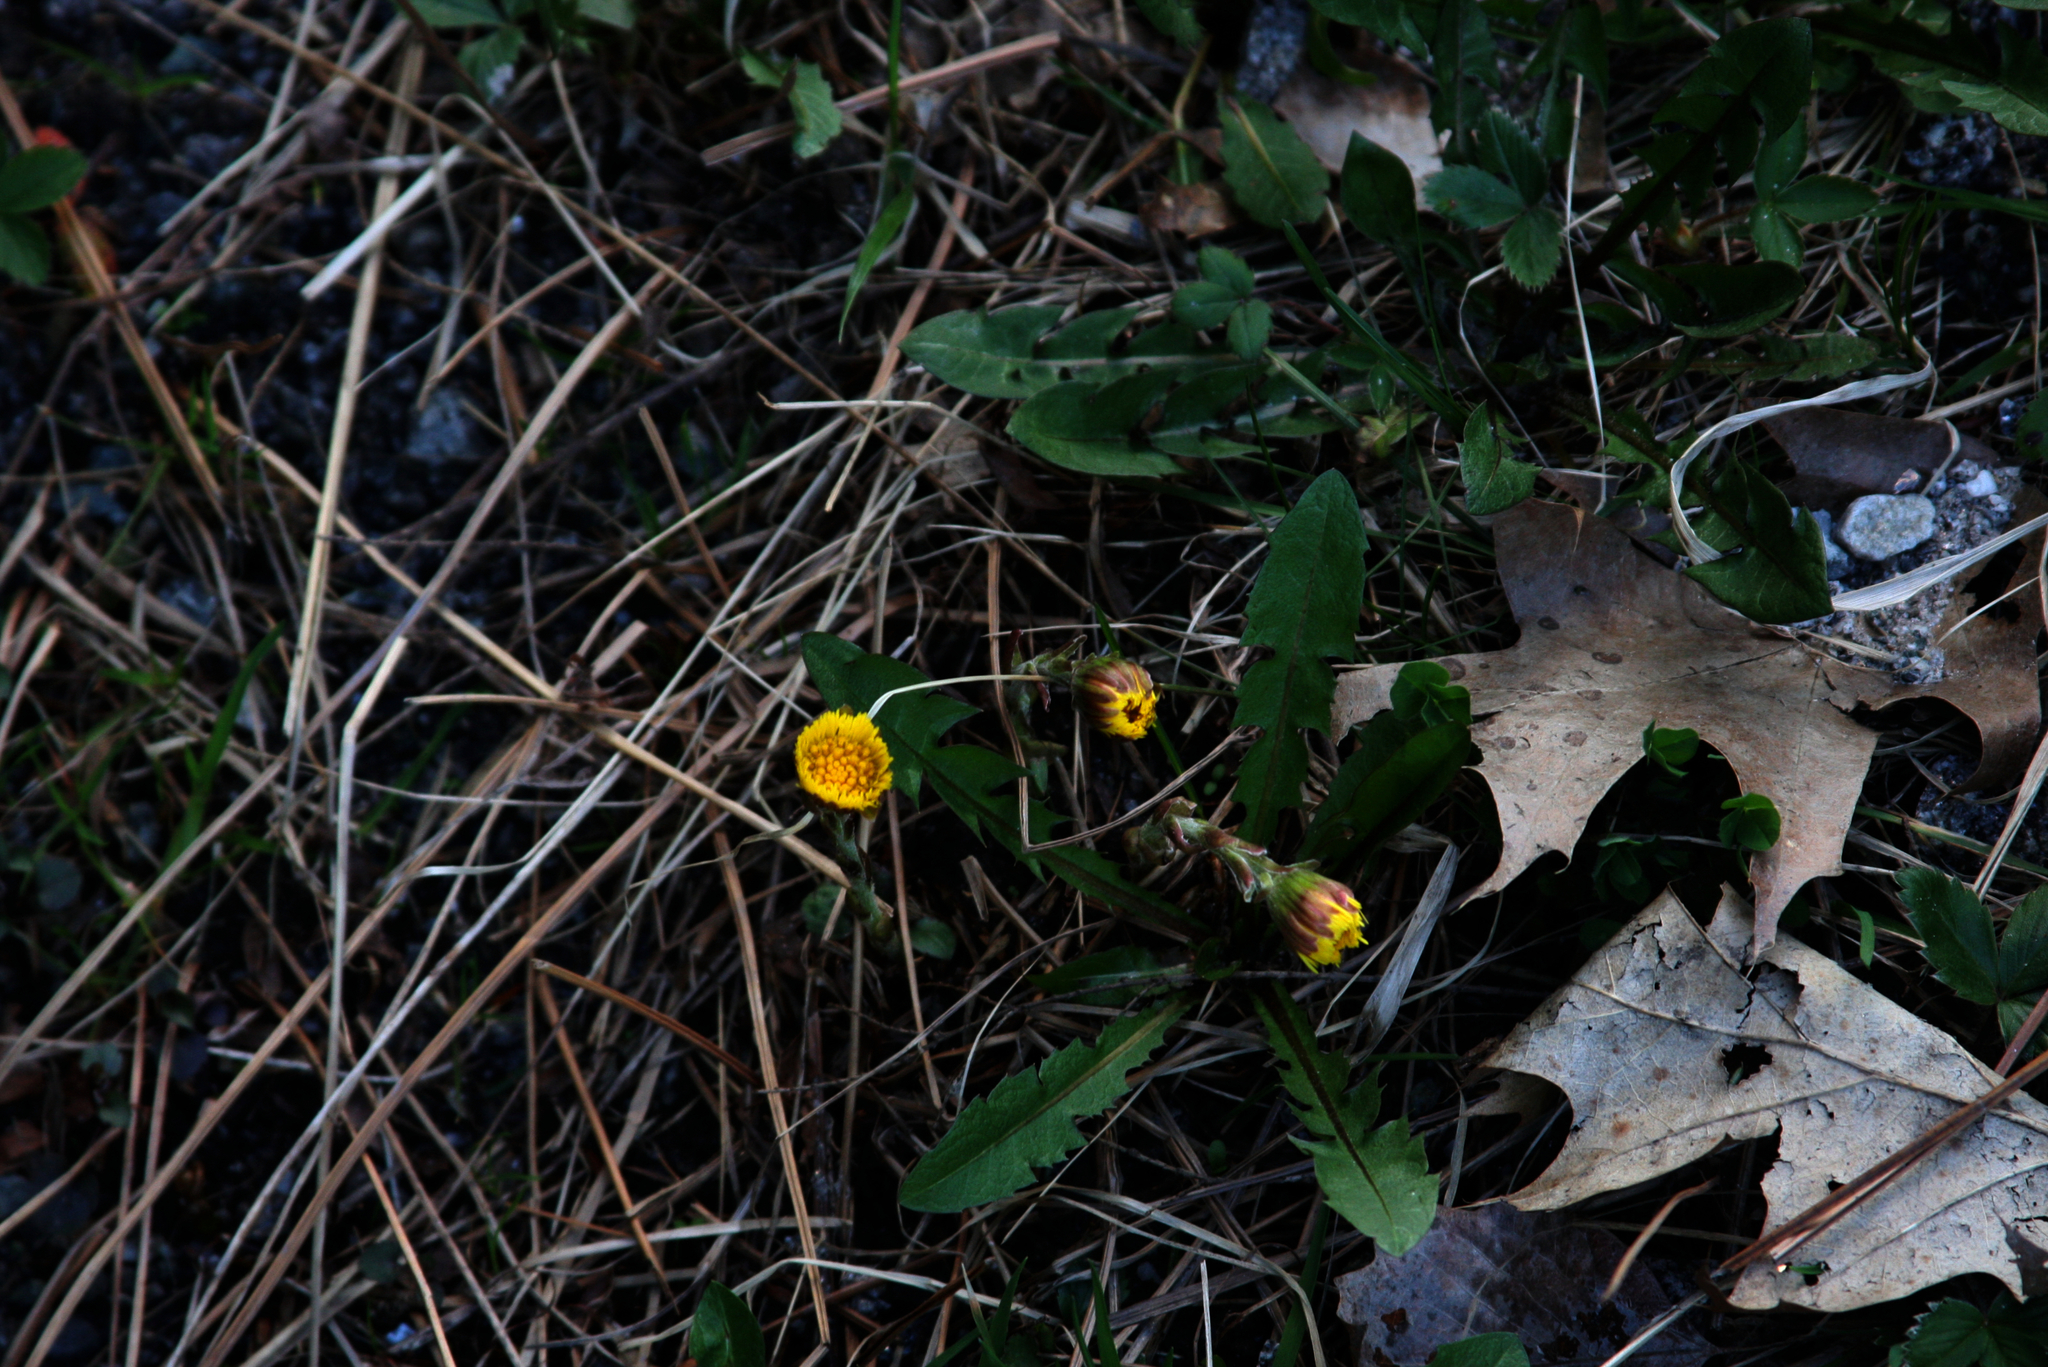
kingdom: Plantae
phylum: Tracheophyta
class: Magnoliopsida
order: Asterales
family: Asteraceae
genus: Taraxacum
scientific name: Taraxacum officinale
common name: Common dandelion
